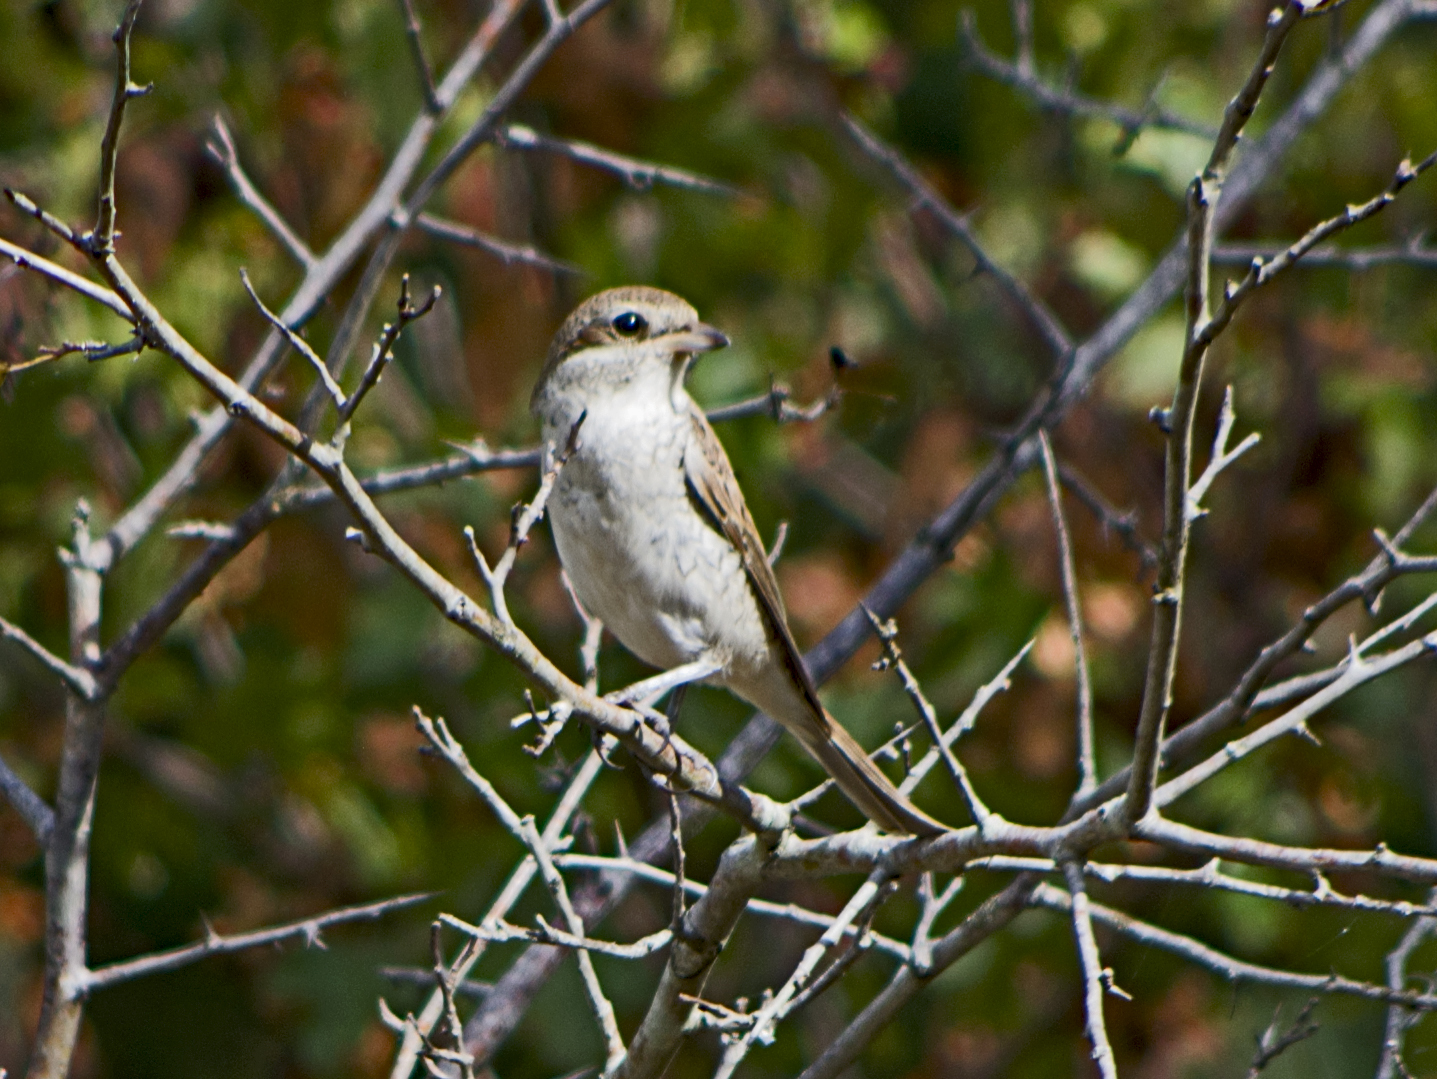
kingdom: Animalia
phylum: Chordata
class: Aves
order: Passeriformes
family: Laniidae
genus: Lanius
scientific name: Lanius collurio
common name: Red-backed shrike
